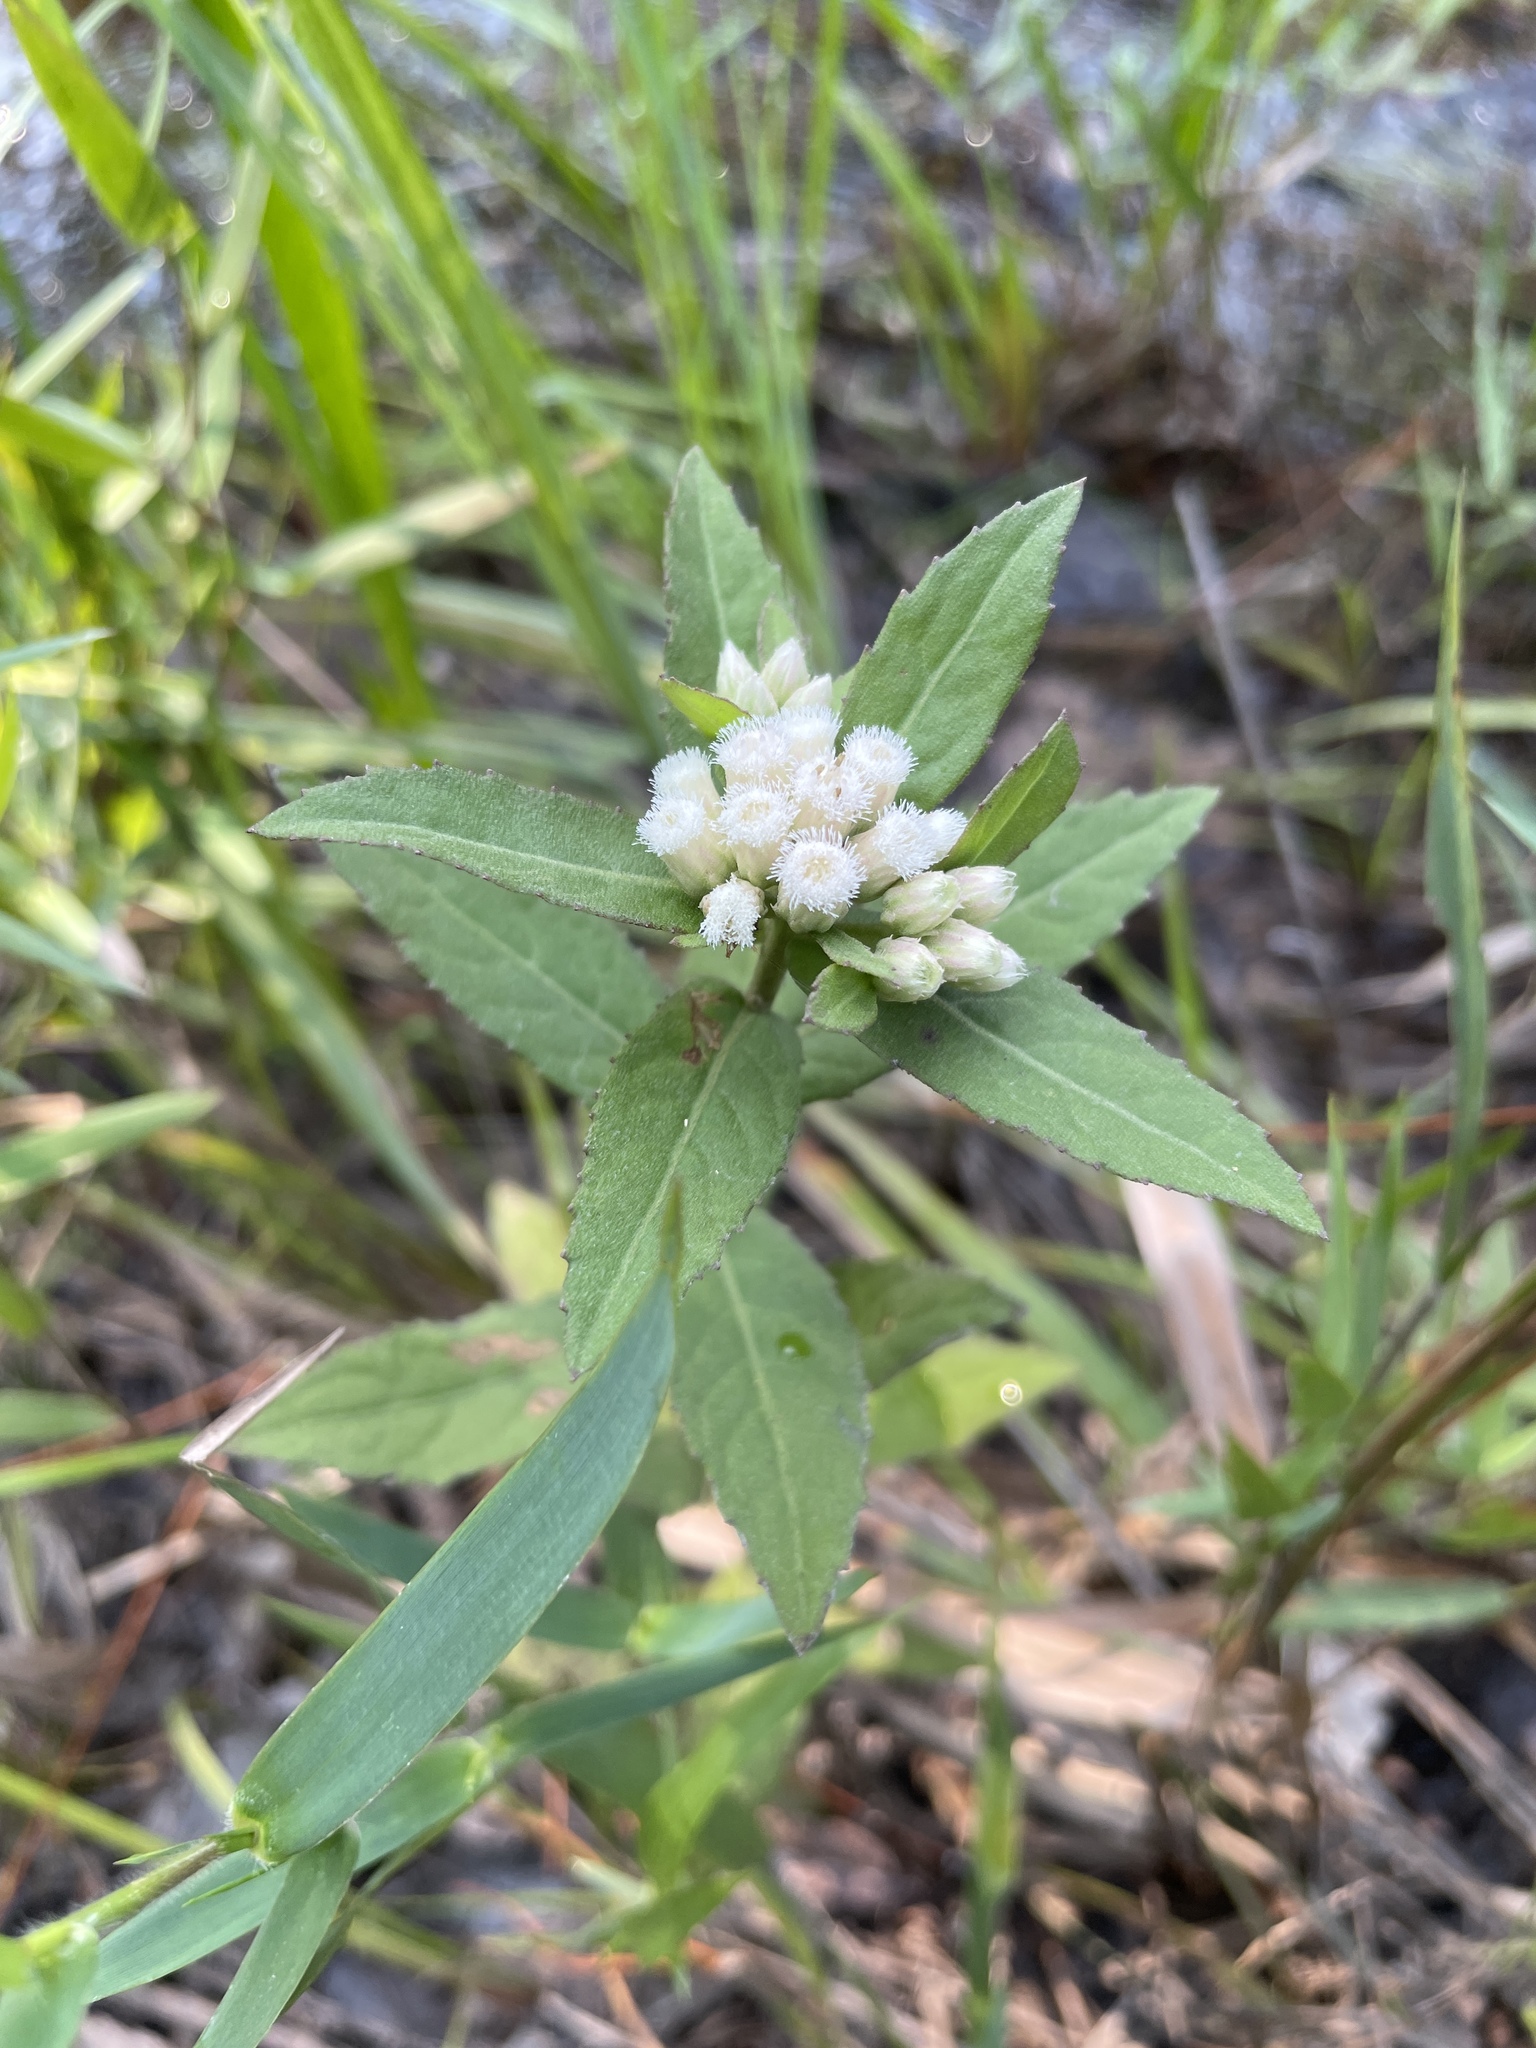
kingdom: Plantae
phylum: Tracheophyta
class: Magnoliopsida
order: Asterales
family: Asteraceae
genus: Pluchea
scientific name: Pluchea foetida
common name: Stinking camphorweed
